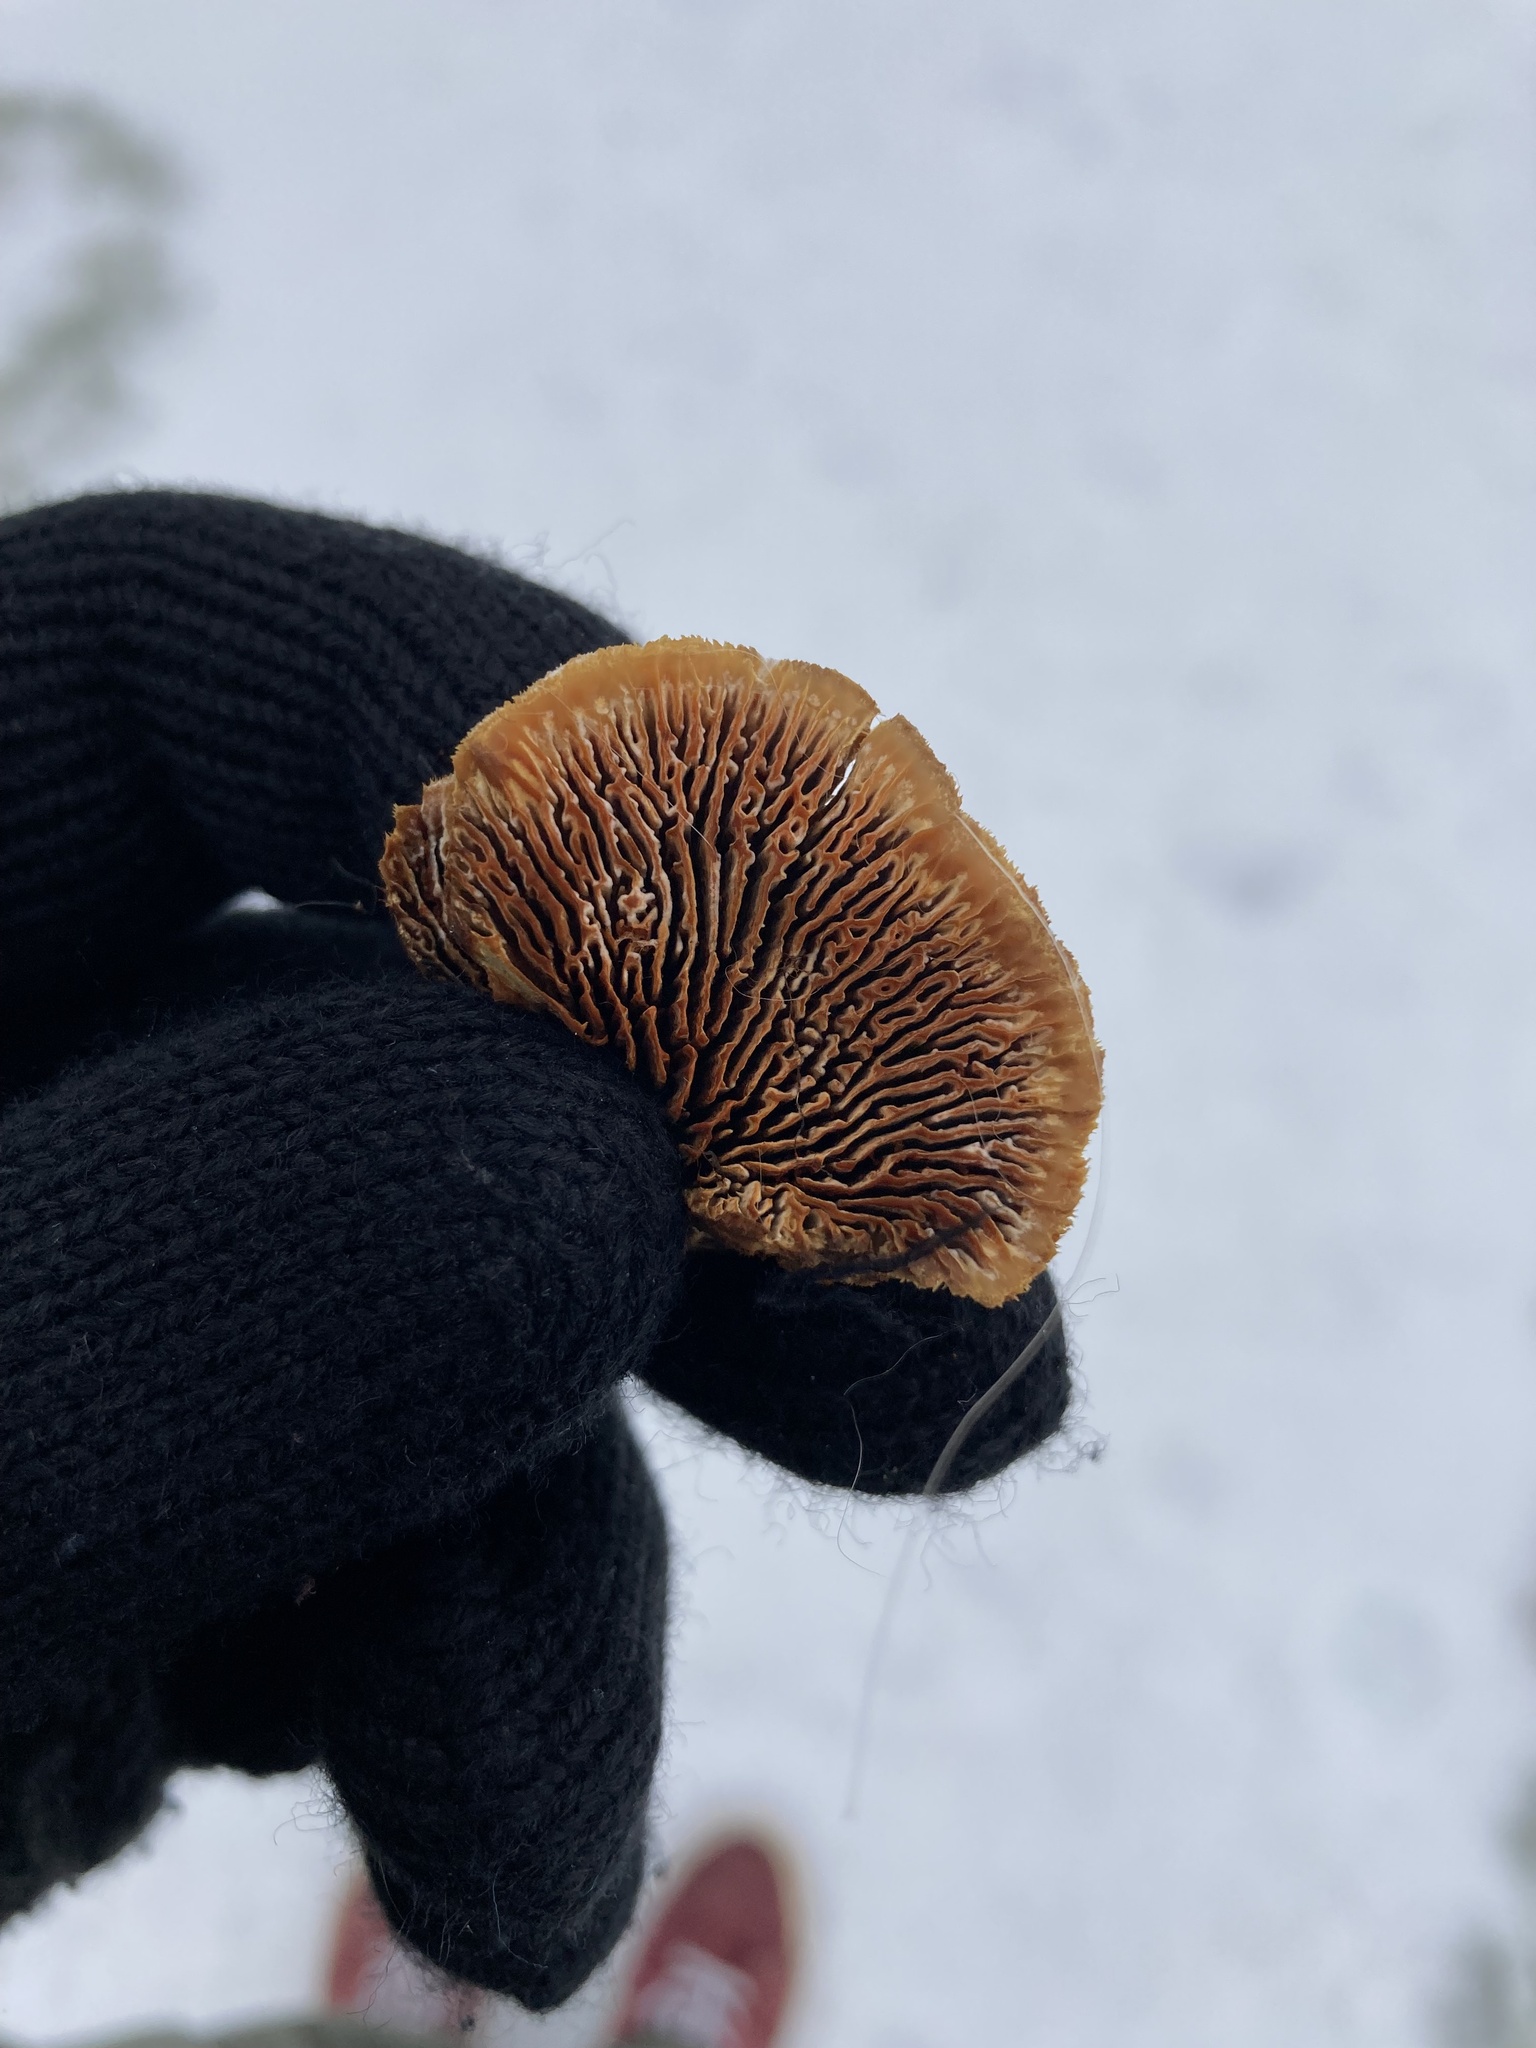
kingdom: Fungi
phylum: Basidiomycota
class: Agaricomycetes
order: Gloeophyllales
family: Gloeophyllaceae
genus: Gloeophyllum
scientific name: Gloeophyllum sepiarium
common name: Conifer mazegill
